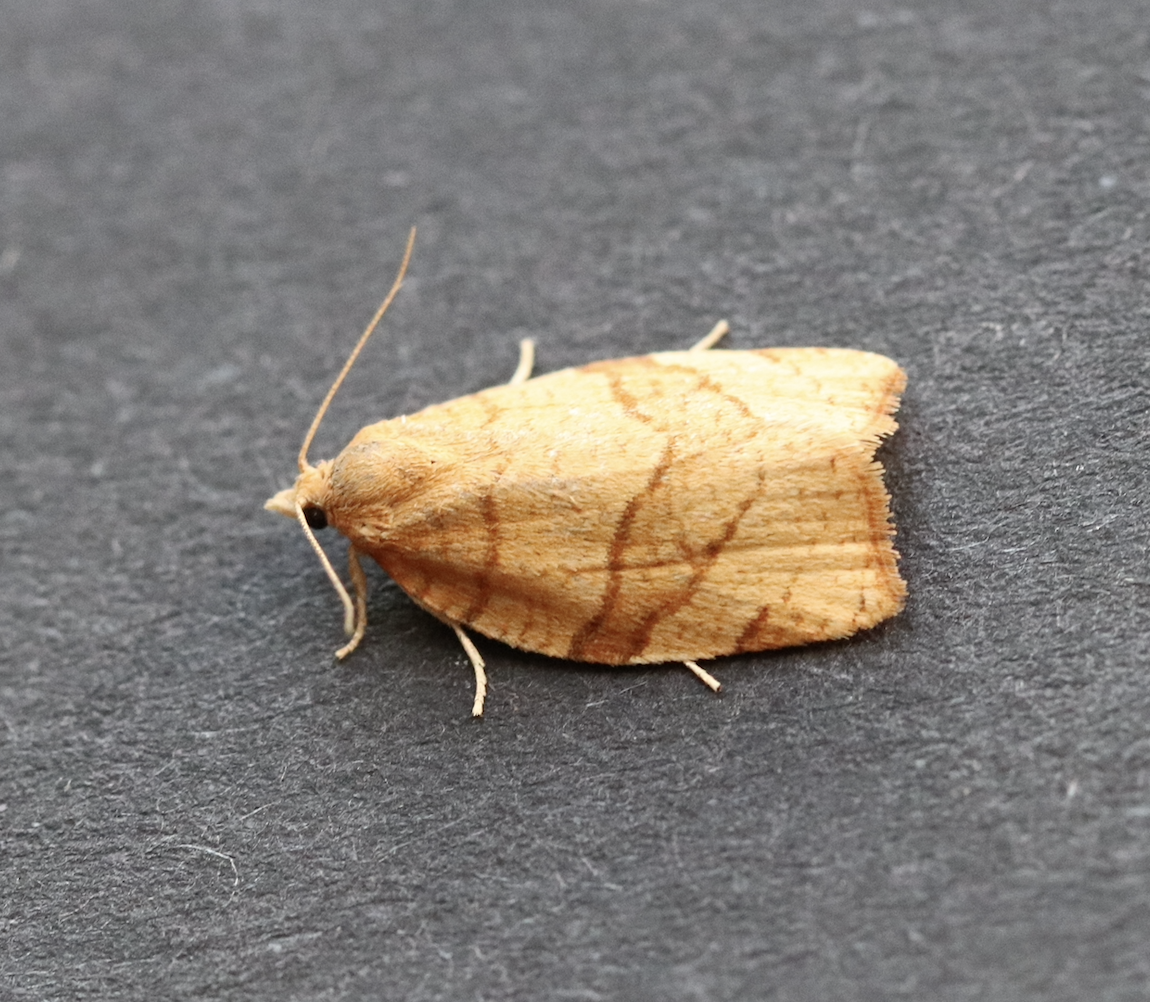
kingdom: Animalia
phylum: Arthropoda
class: Insecta
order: Lepidoptera
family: Tortricidae
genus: Pandemis
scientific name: Pandemis cerasana
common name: Barred fruit-tree tortrix
